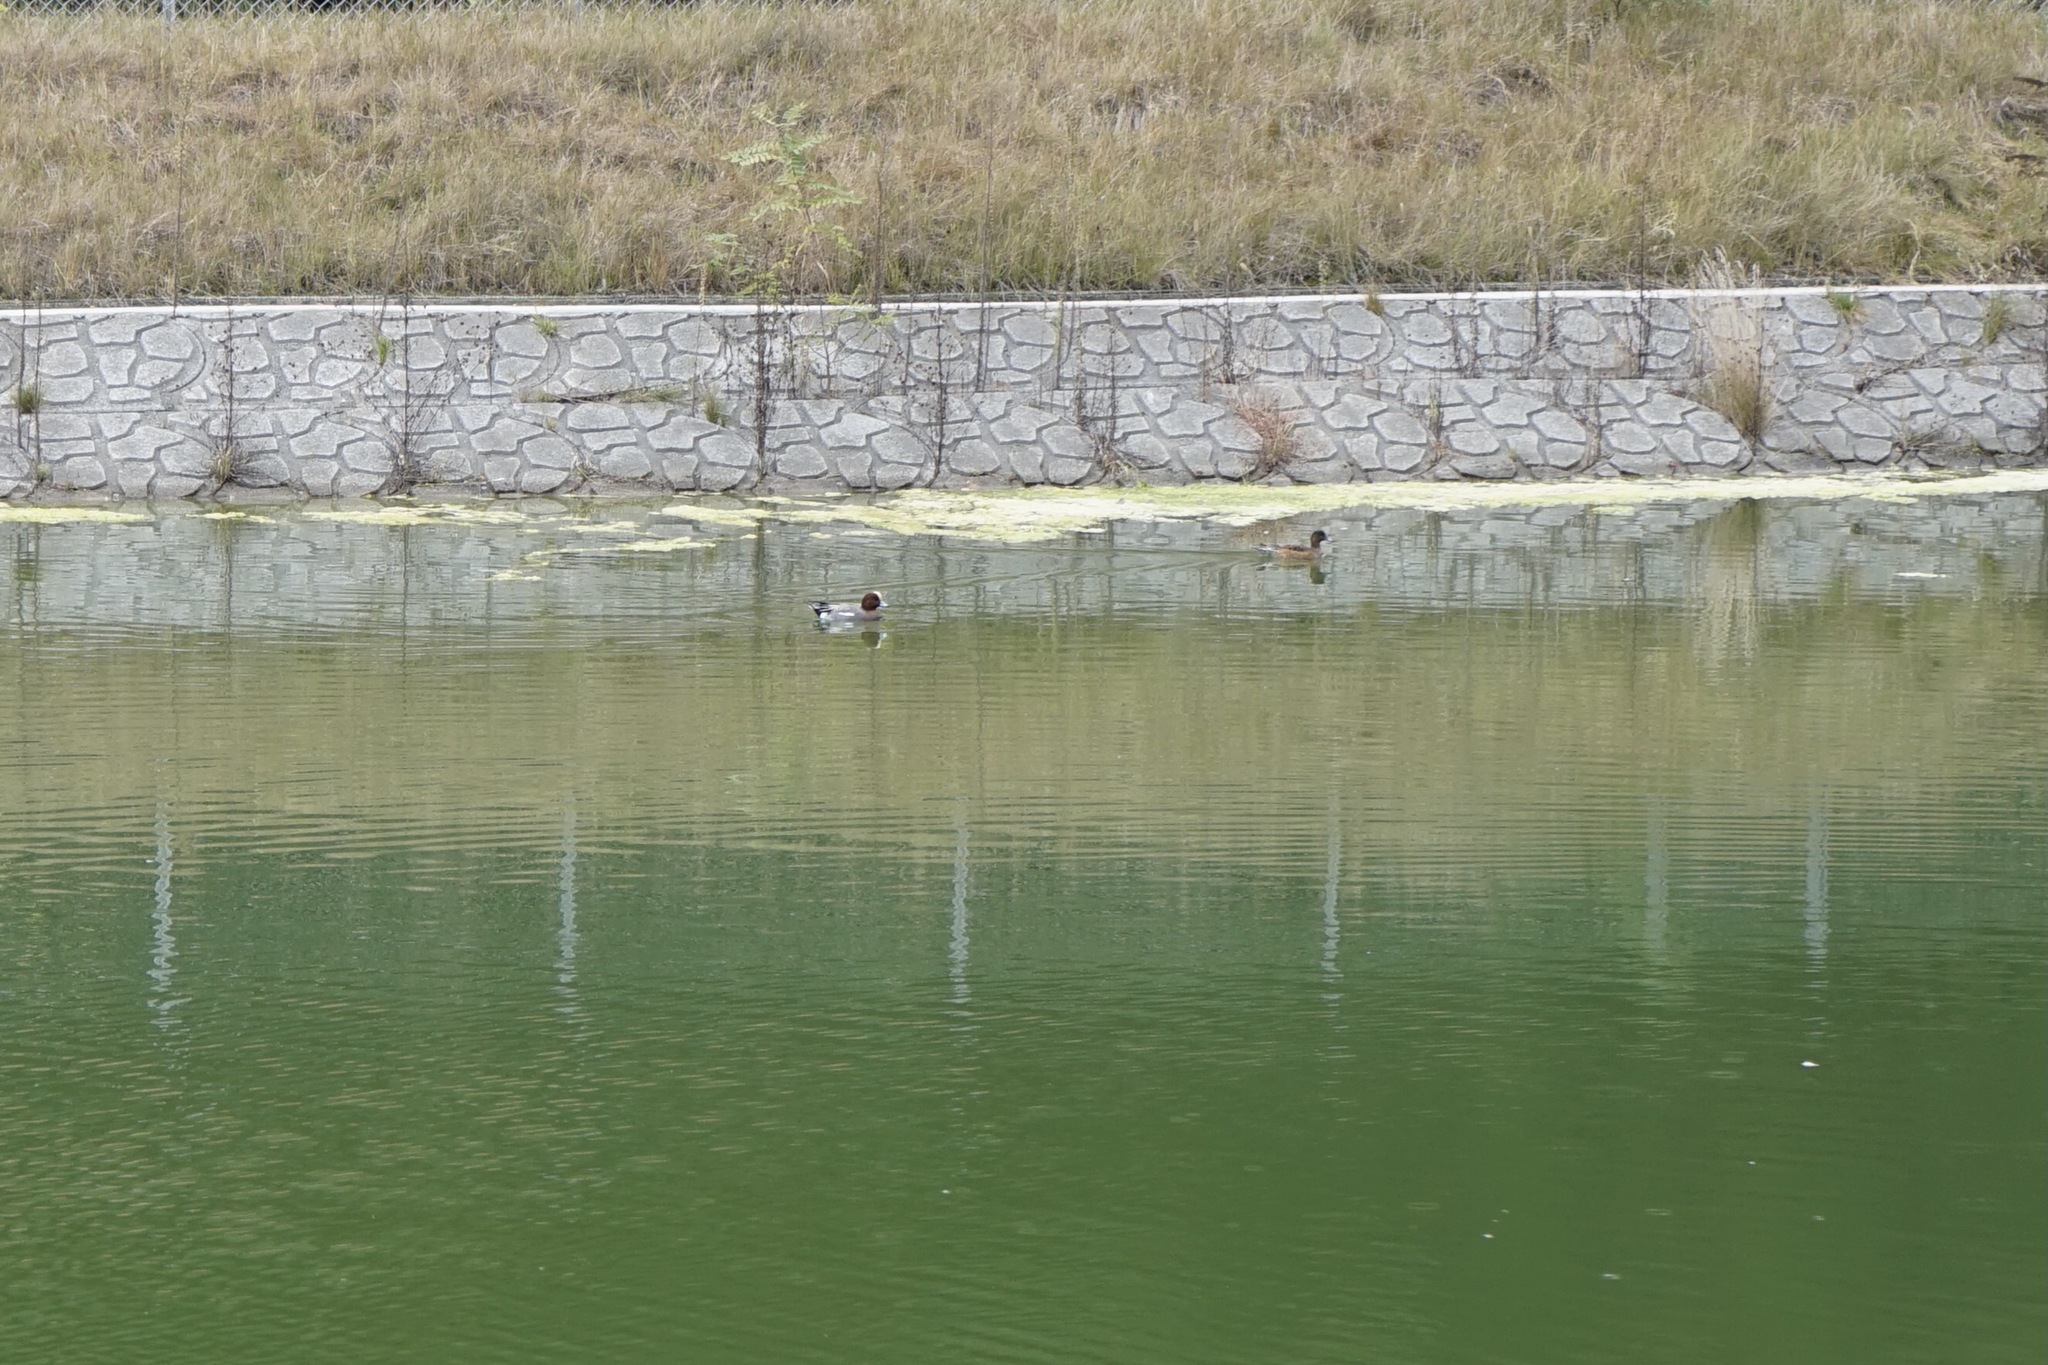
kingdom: Animalia
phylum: Chordata
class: Aves
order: Anseriformes
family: Anatidae
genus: Mareca
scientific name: Mareca penelope
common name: Eurasian wigeon
